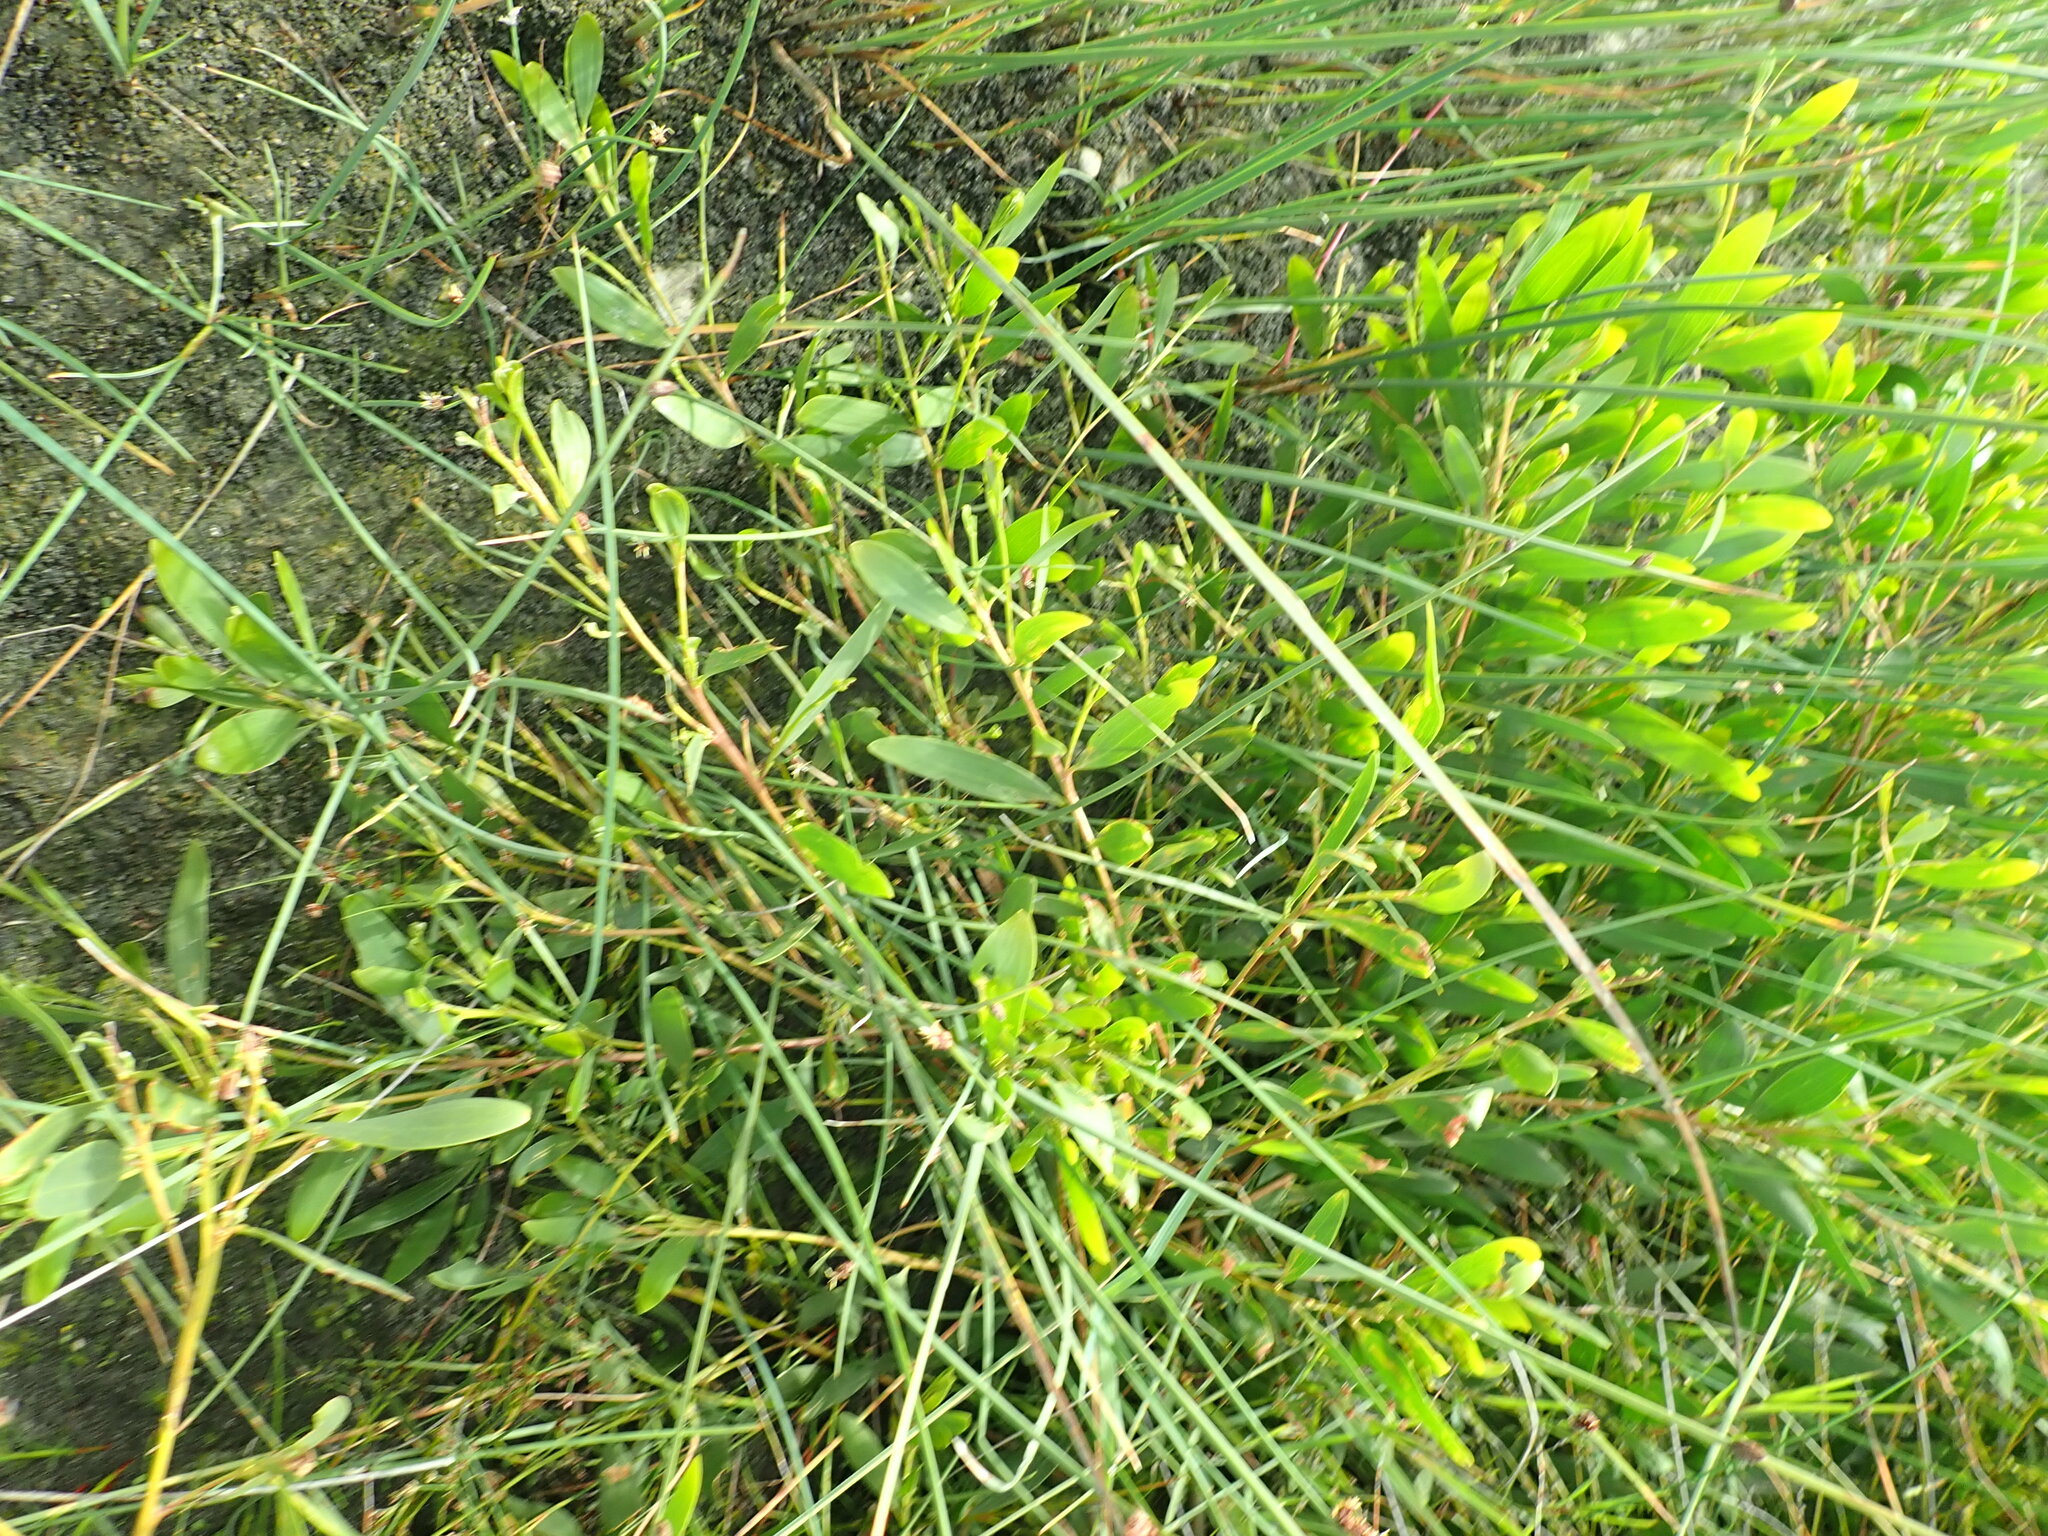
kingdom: Plantae
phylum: Tracheophyta
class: Magnoliopsida
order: Fabales
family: Fabaceae
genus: Acacia
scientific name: Acacia longifolia
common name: Sydney golden wattle
